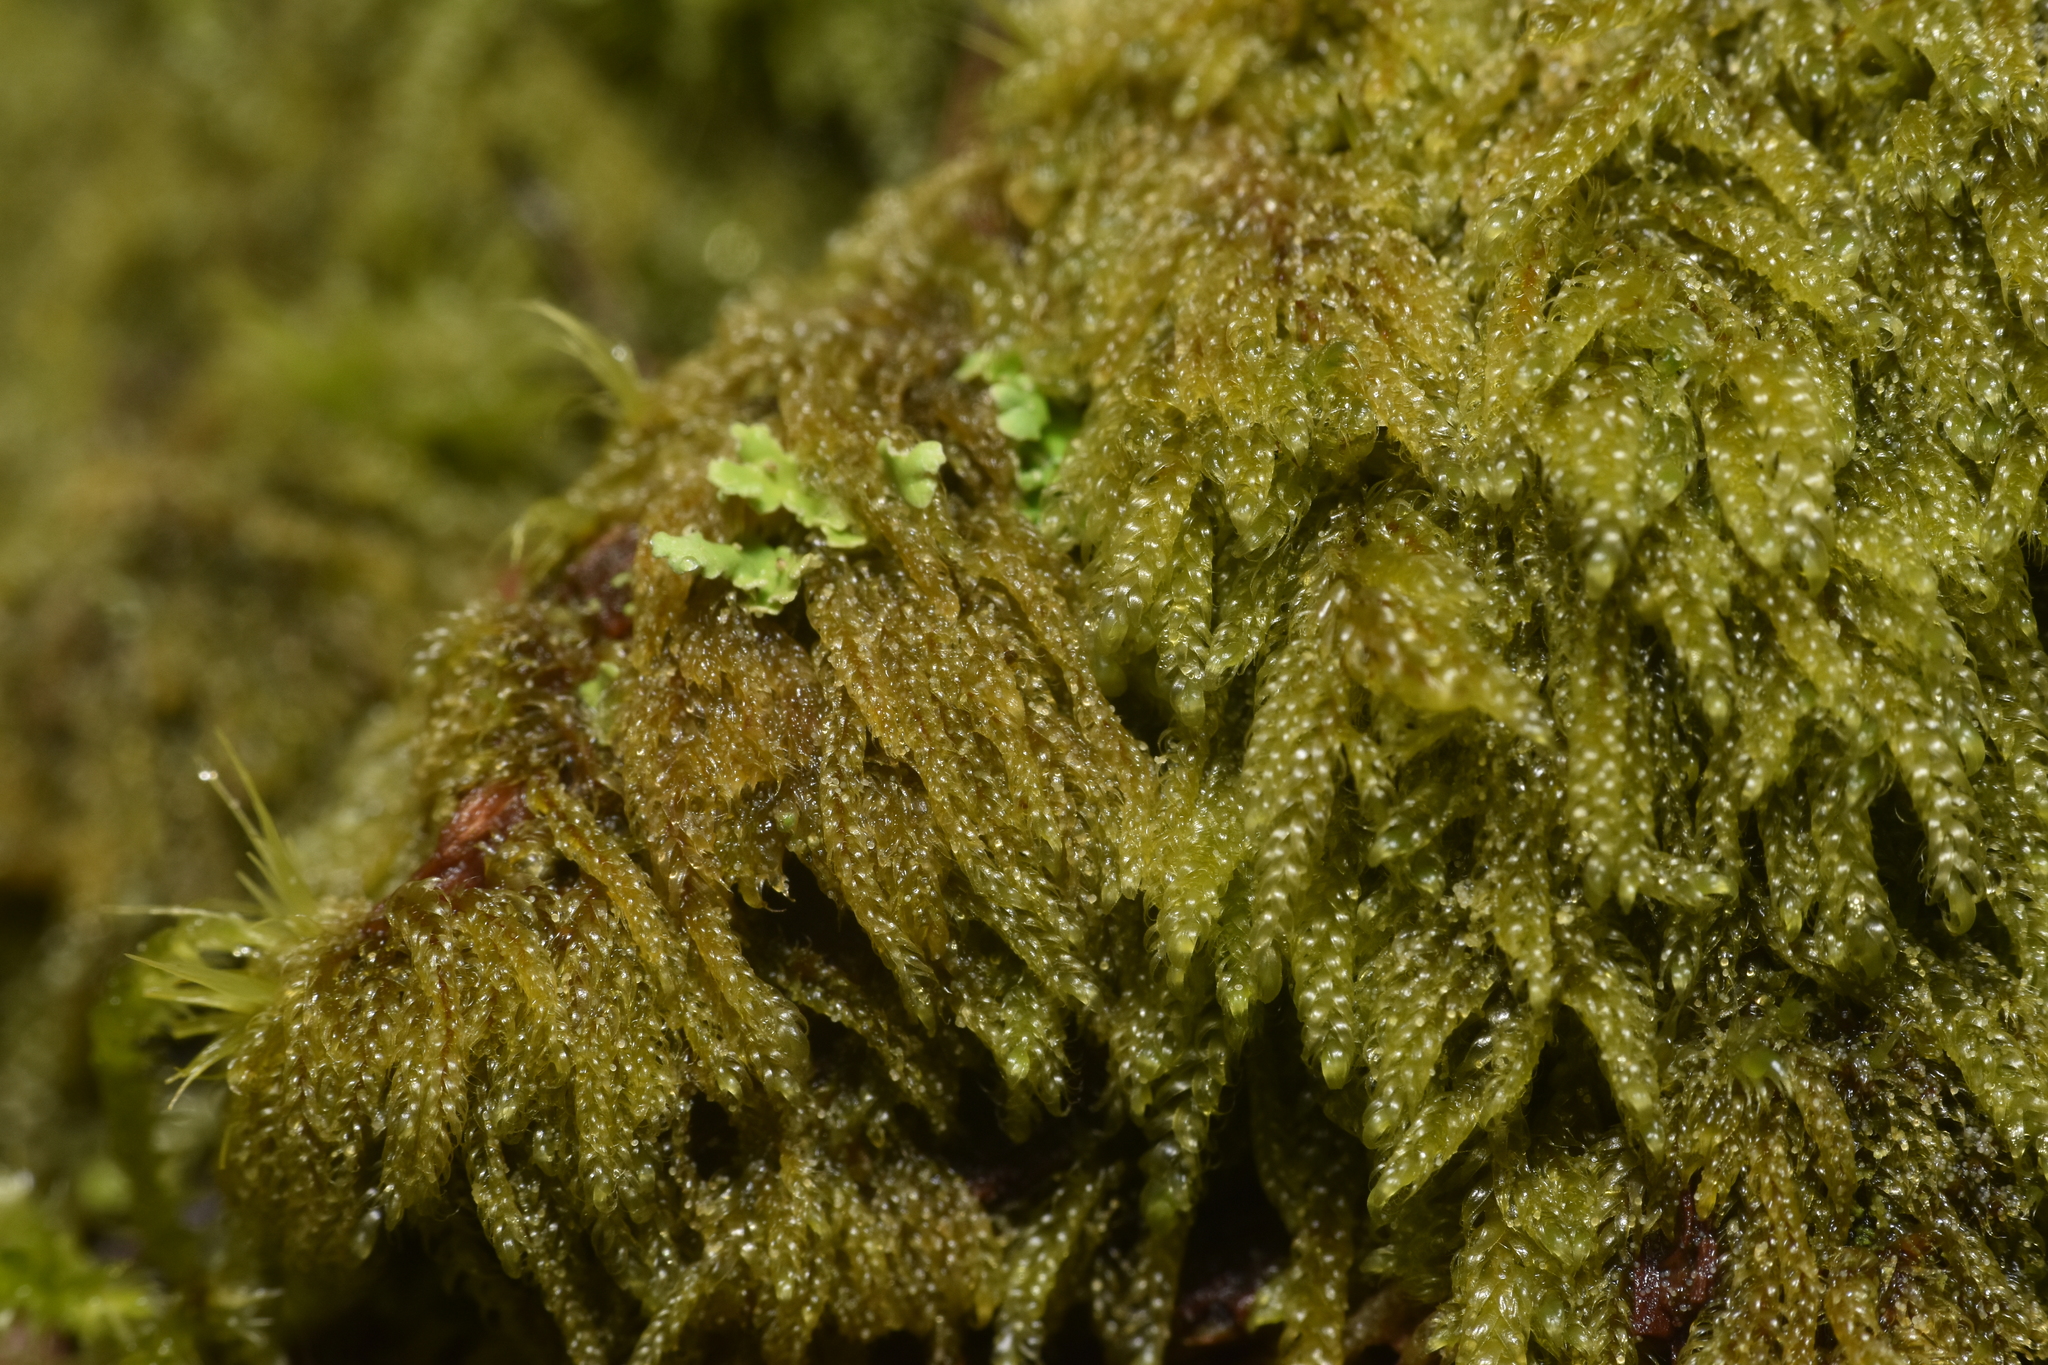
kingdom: Plantae
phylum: Bryophyta
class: Bryopsida
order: Hypnales
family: Pylaisiadelphaceae
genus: Trochophyllohypnum
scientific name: Trochophyllohypnum circinale
